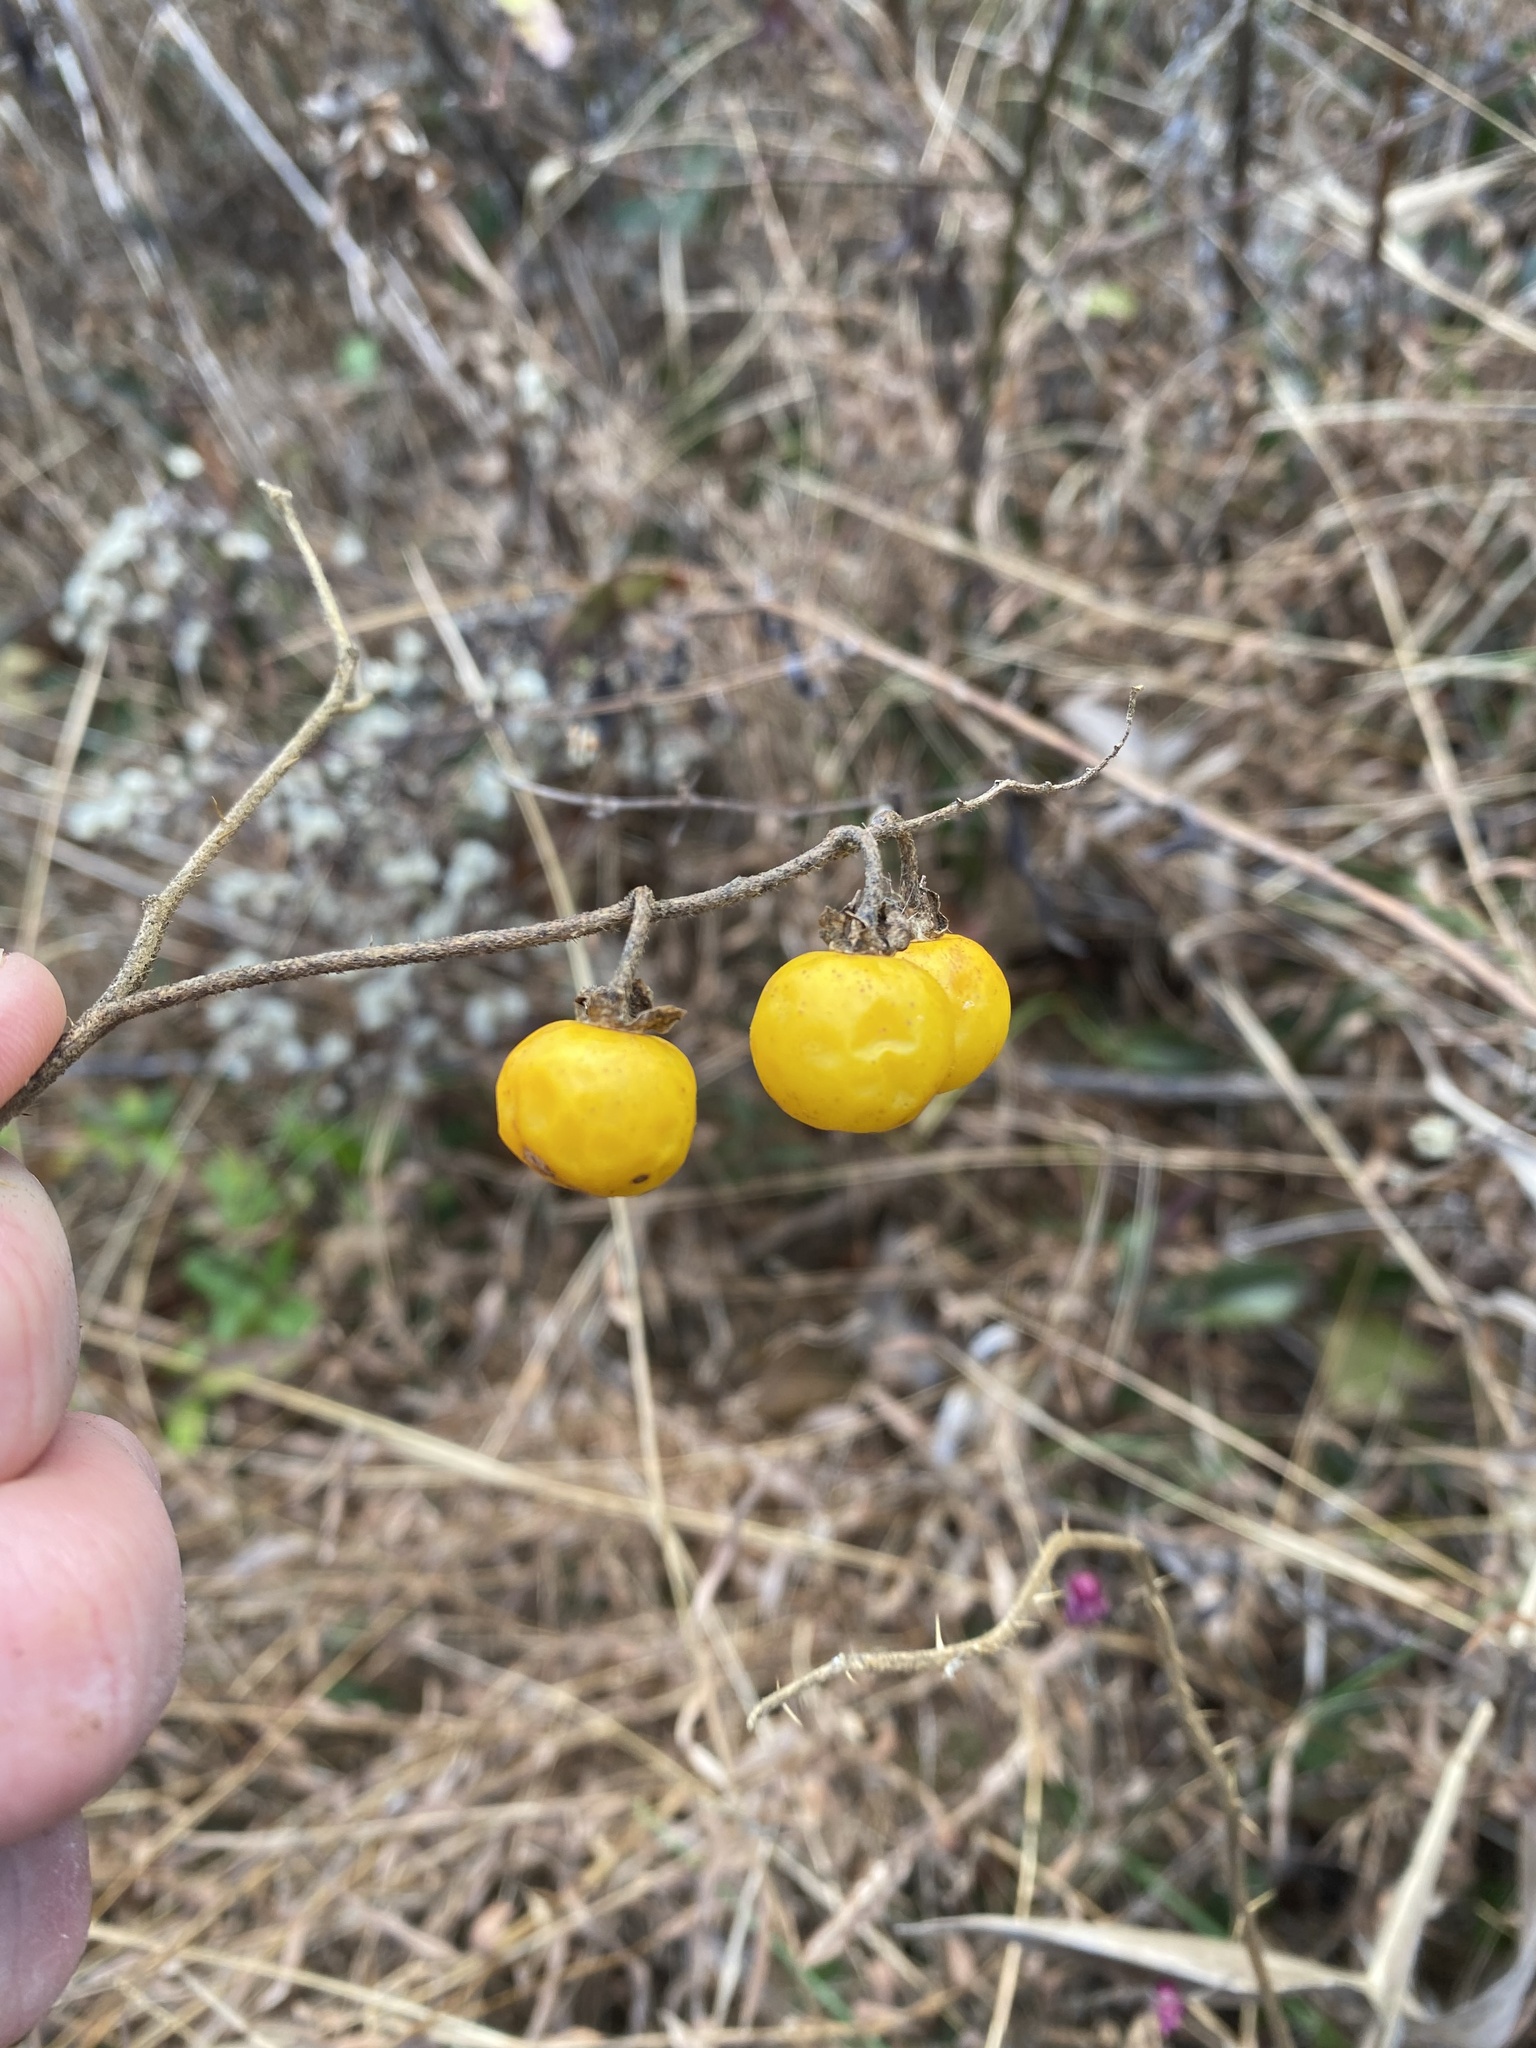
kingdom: Plantae
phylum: Tracheophyta
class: Magnoliopsida
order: Solanales
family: Solanaceae
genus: Solanum
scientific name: Solanum carolinense
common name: Horse-nettle
